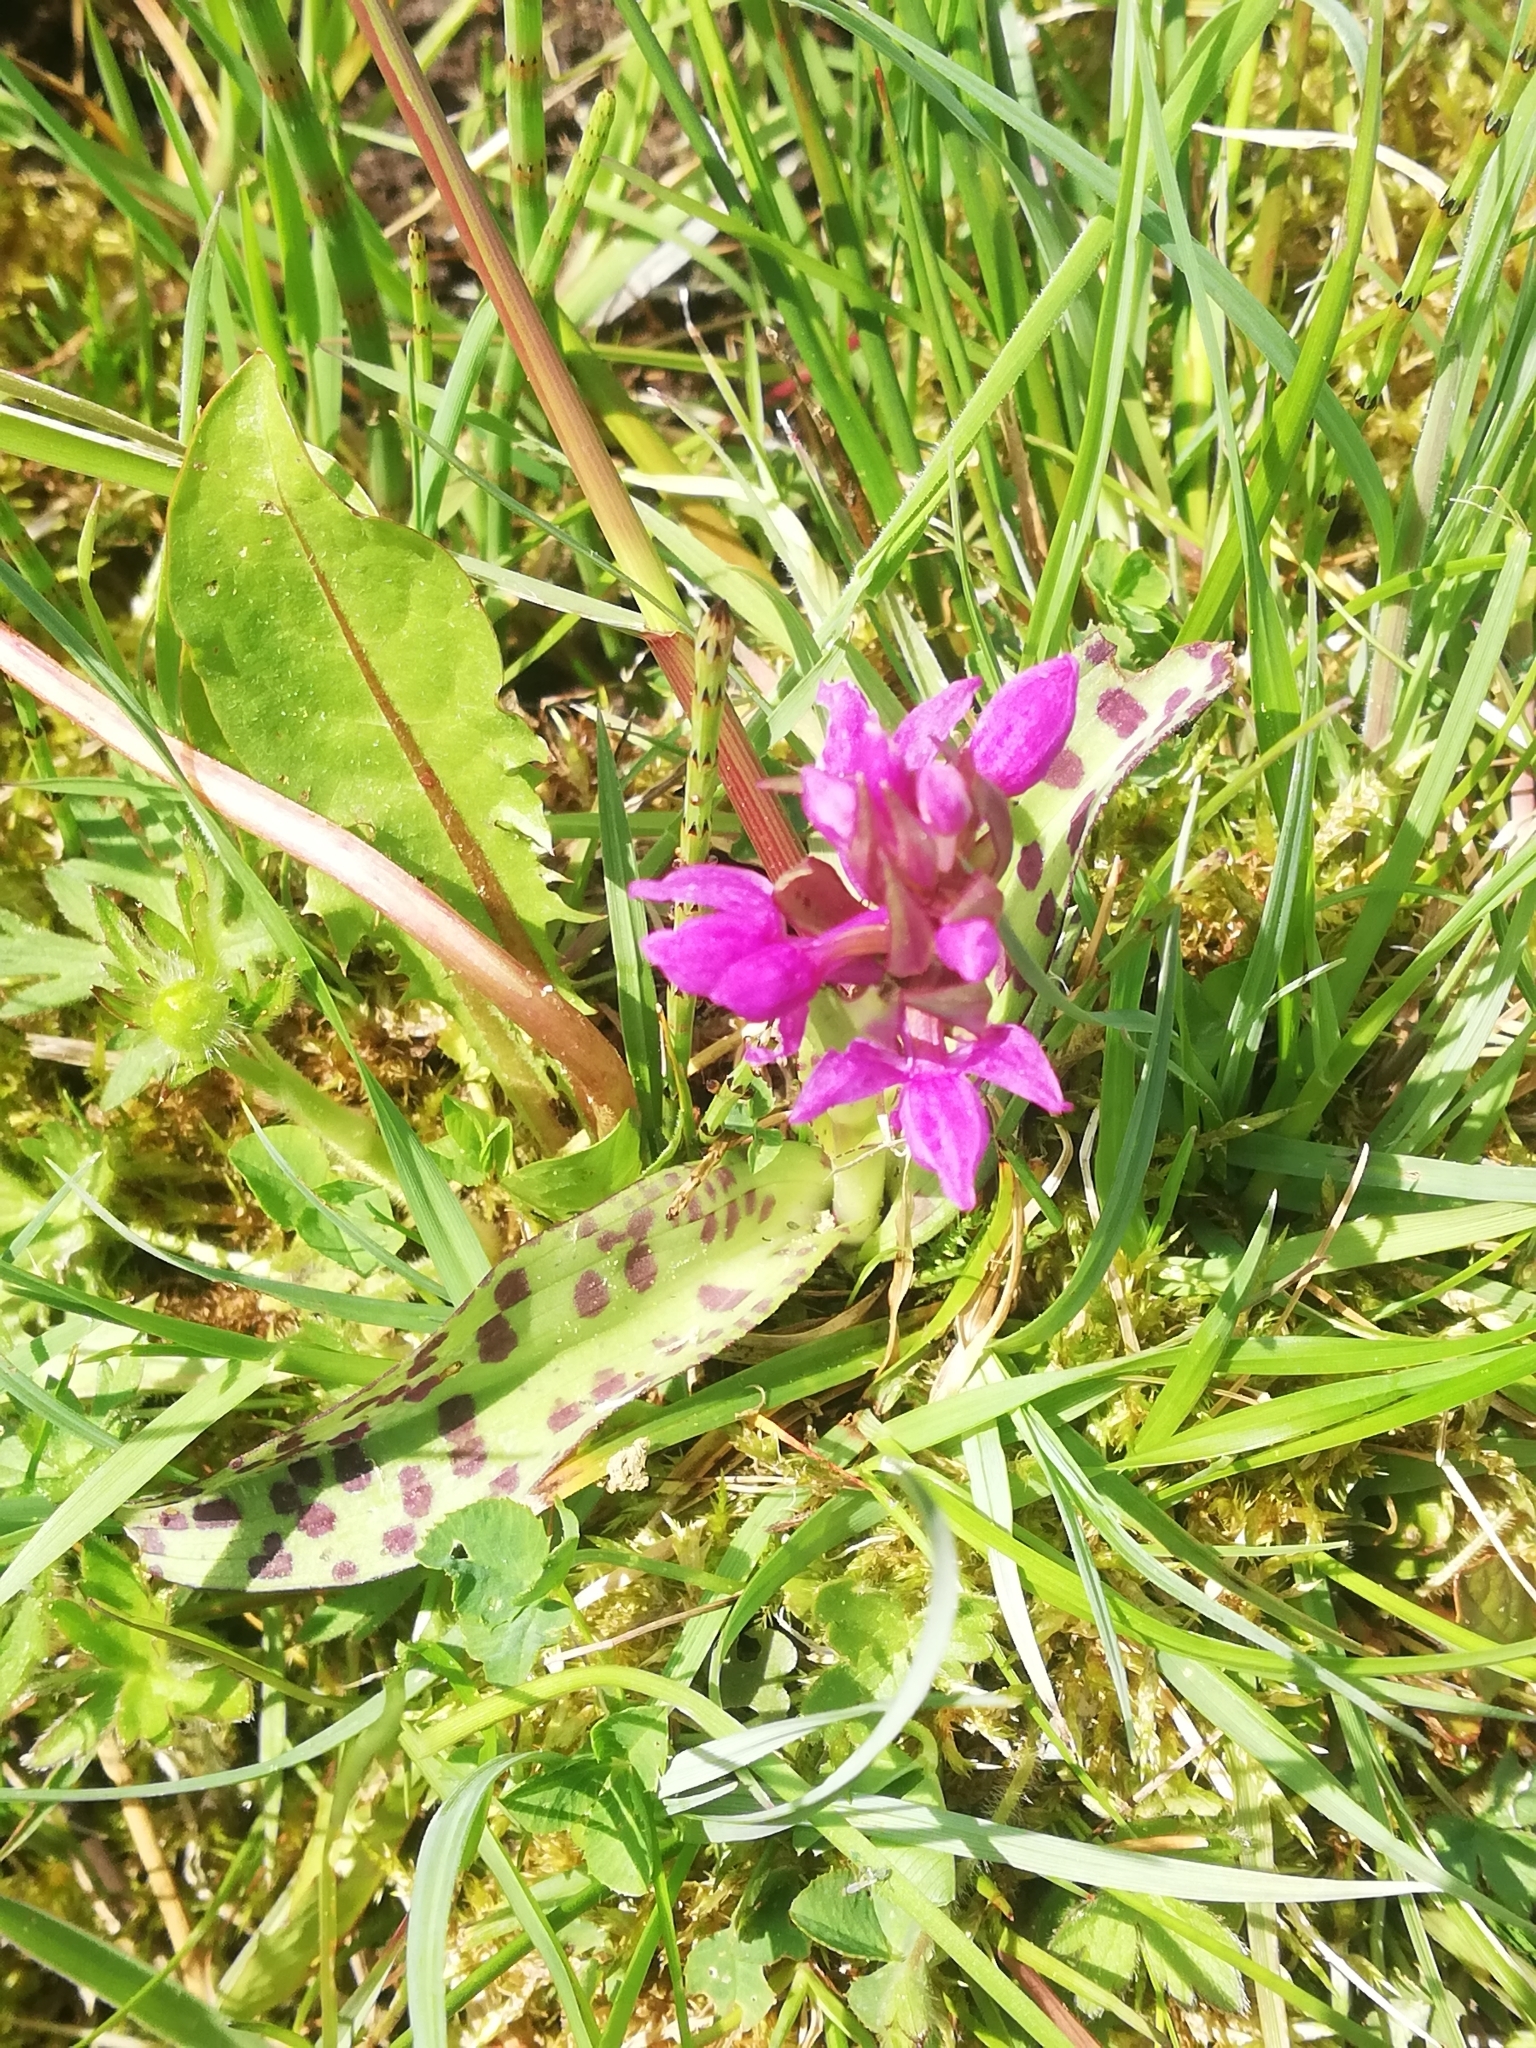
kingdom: Plantae
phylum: Tracheophyta
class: Liliopsida
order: Asparagales
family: Orchidaceae
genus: Dactylorhiza
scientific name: Dactylorhiza majalis
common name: Marsh orchid
